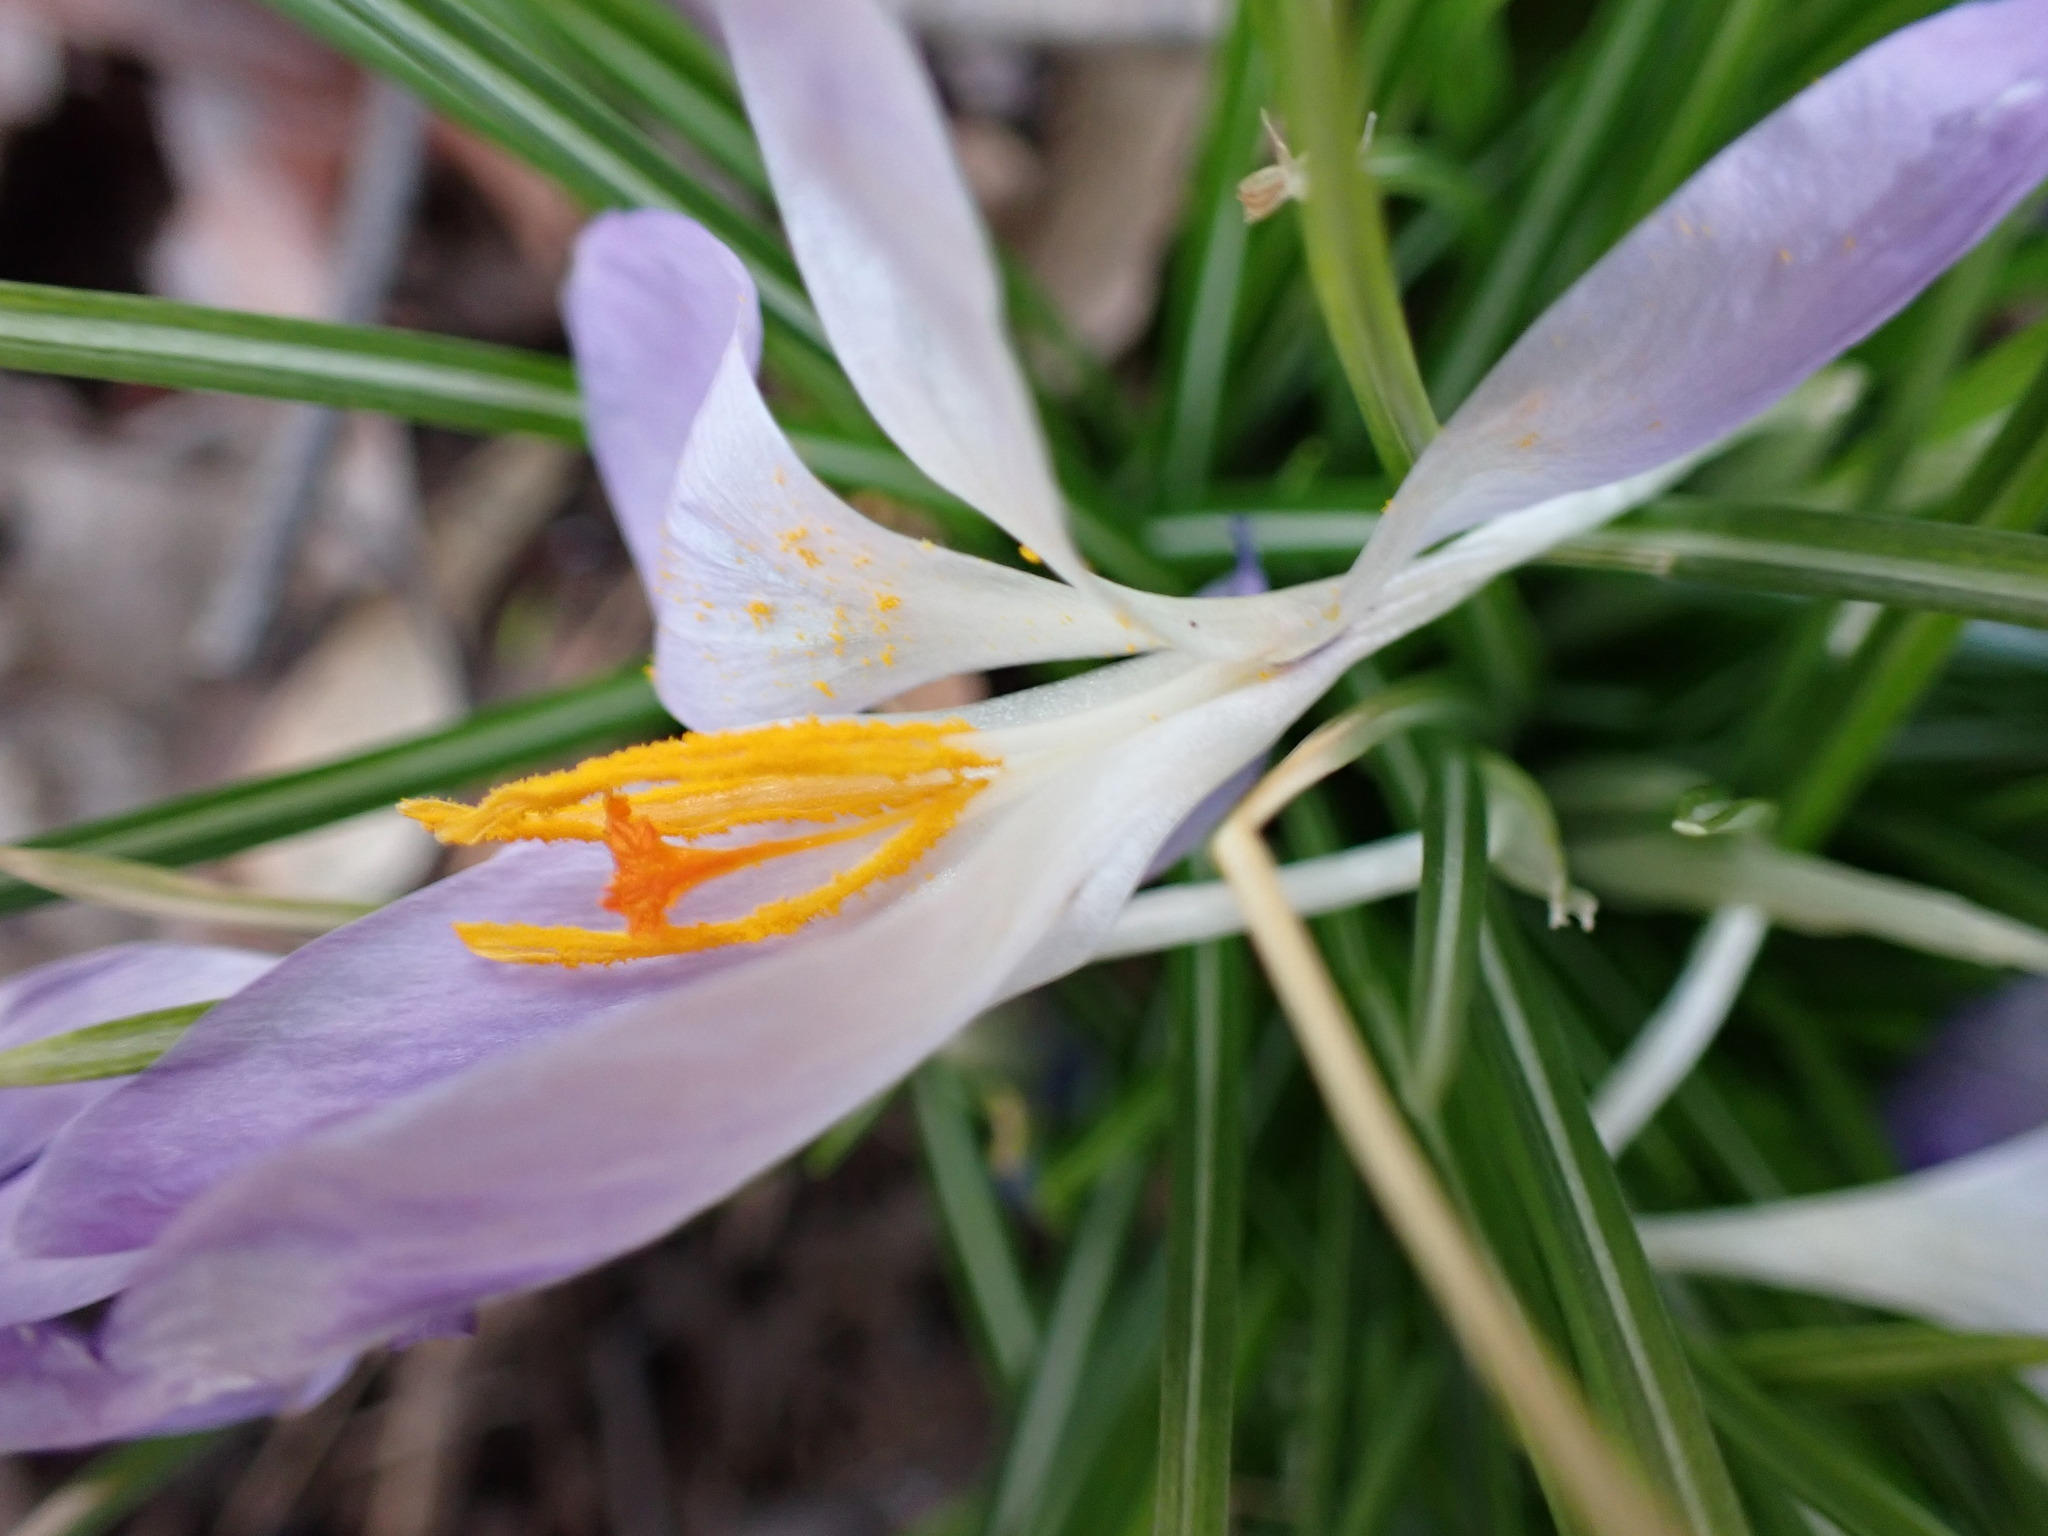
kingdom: Plantae
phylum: Tracheophyta
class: Liliopsida
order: Asparagales
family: Iridaceae
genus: Crocus
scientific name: Crocus tommasinianus
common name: Early crocus
